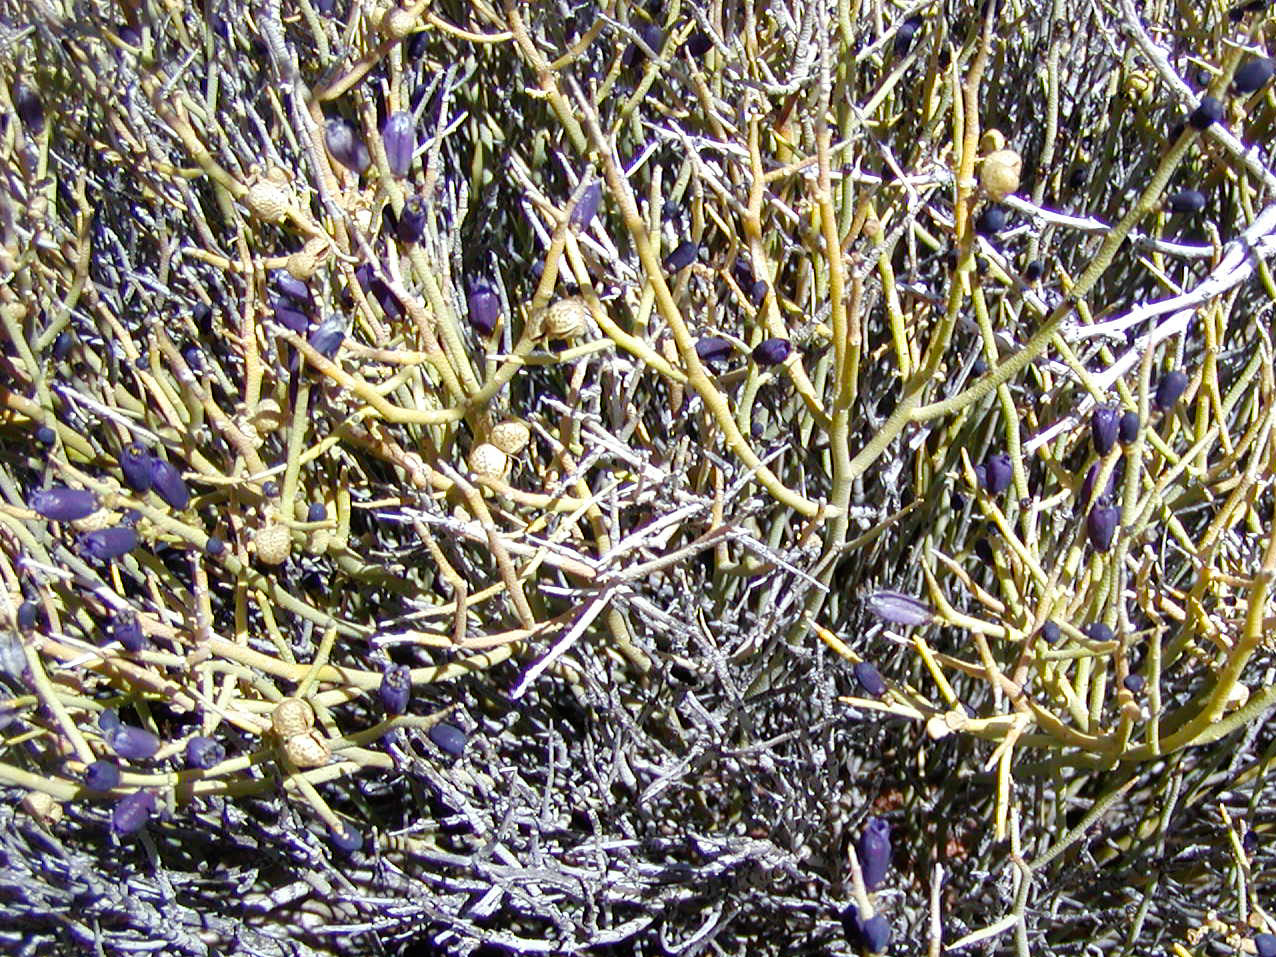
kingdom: Plantae
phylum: Tracheophyta
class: Magnoliopsida
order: Sapindales
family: Rutaceae
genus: Thamnosma
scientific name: Thamnosma montana
